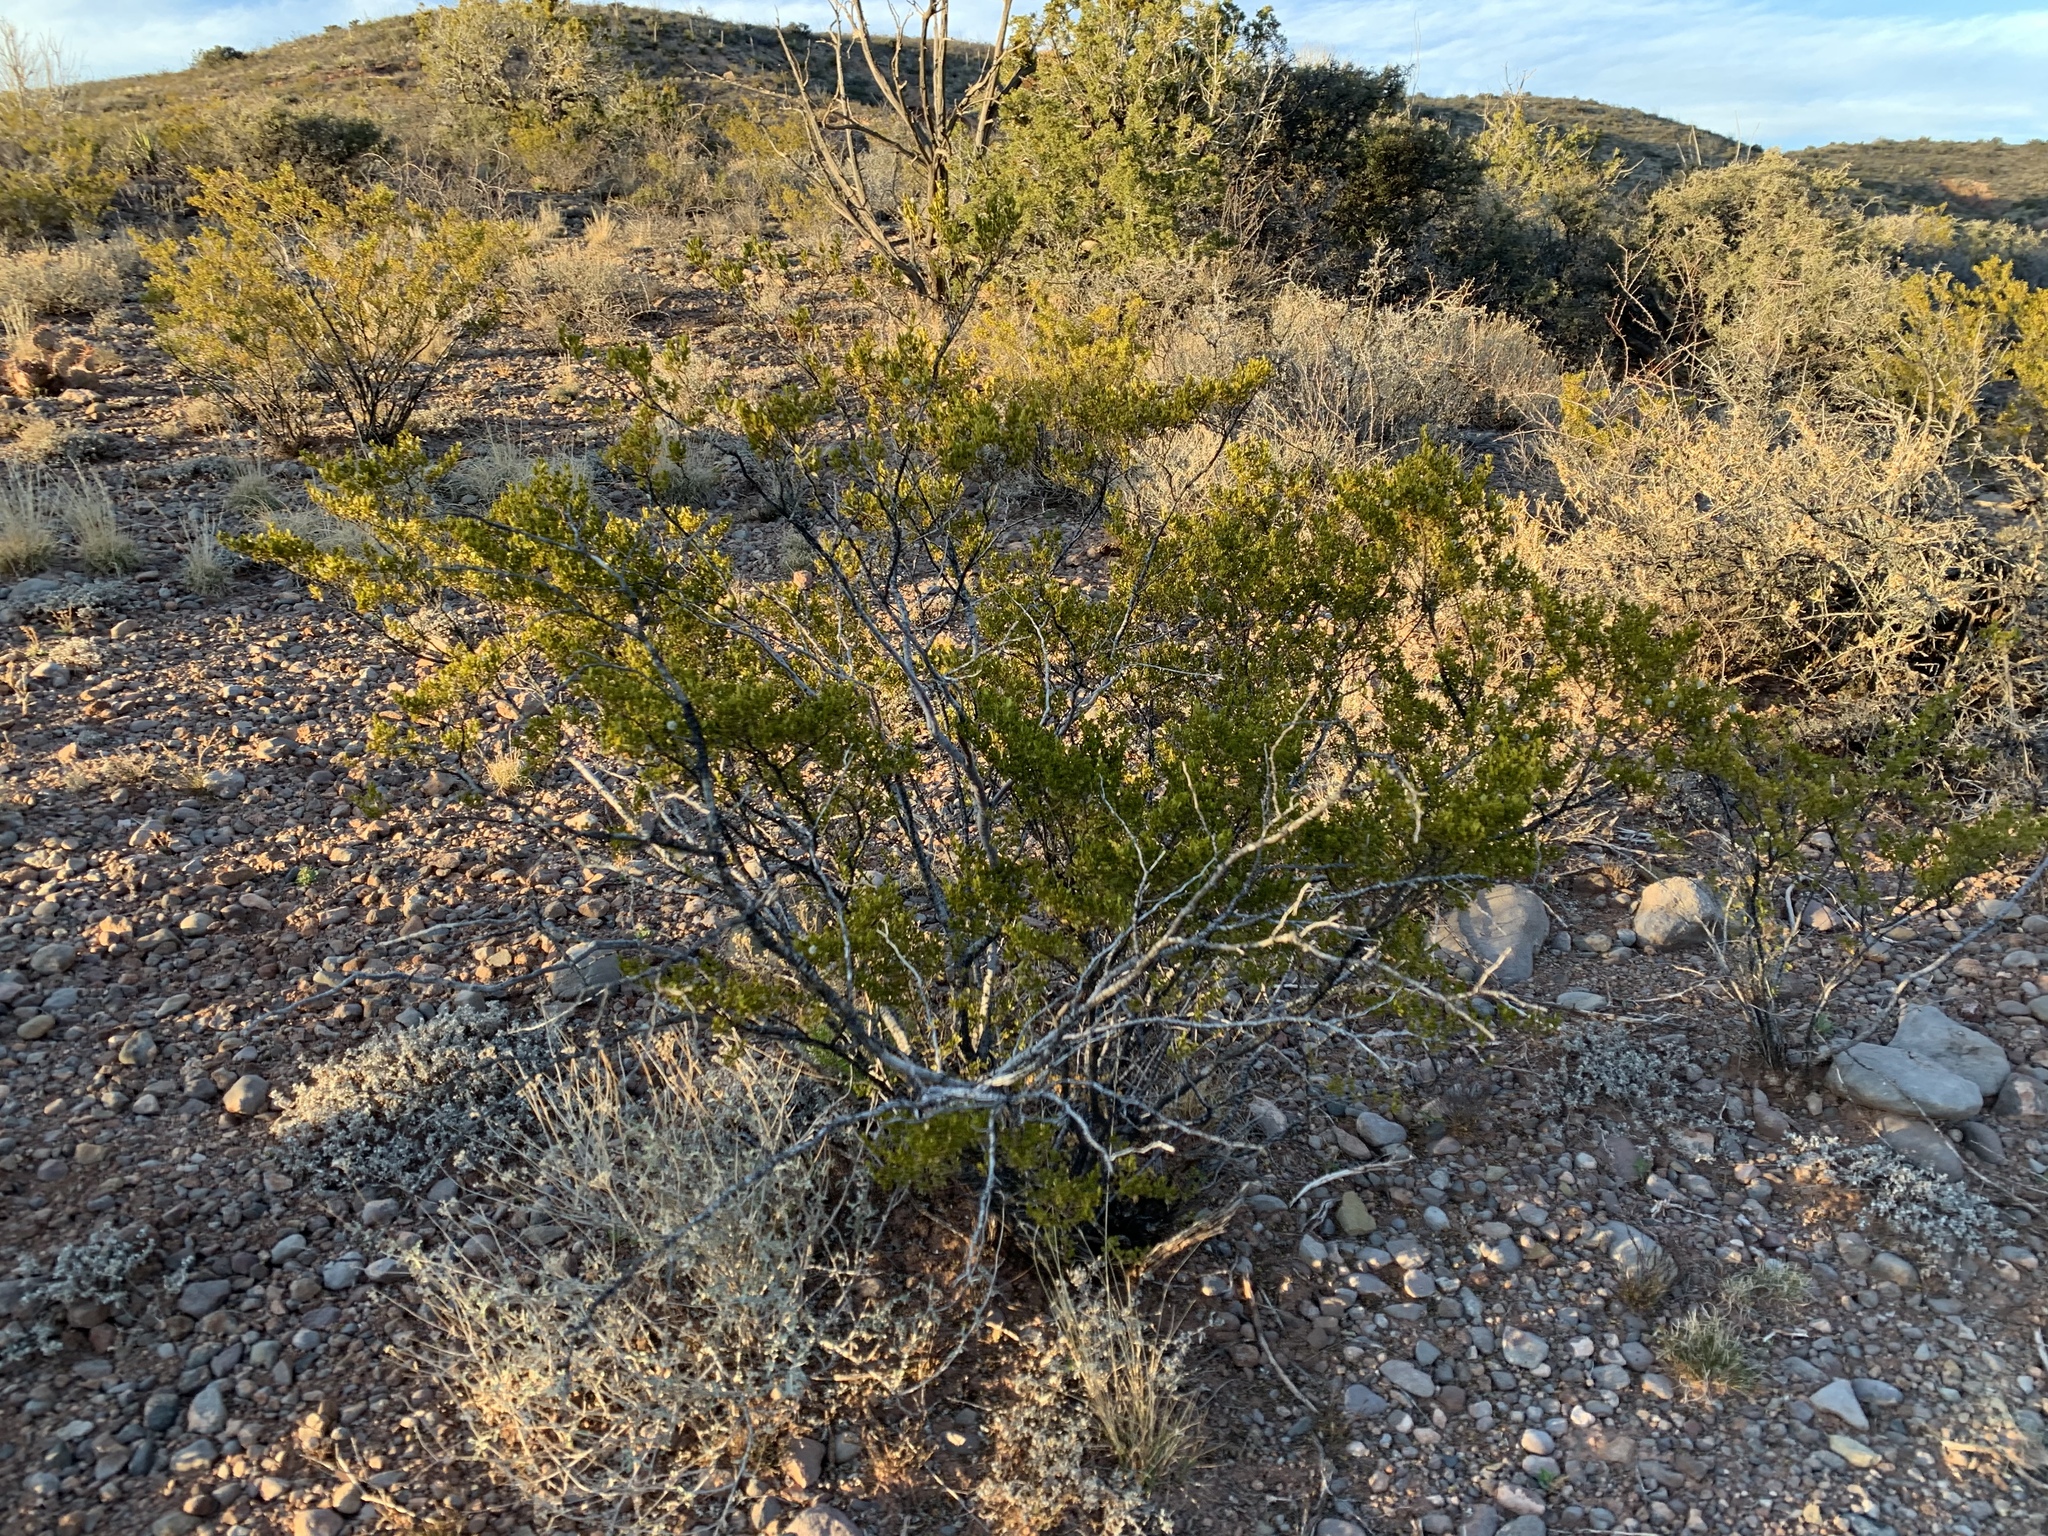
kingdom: Plantae
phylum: Tracheophyta
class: Magnoliopsida
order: Zygophyllales
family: Zygophyllaceae
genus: Larrea
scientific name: Larrea tridentata
